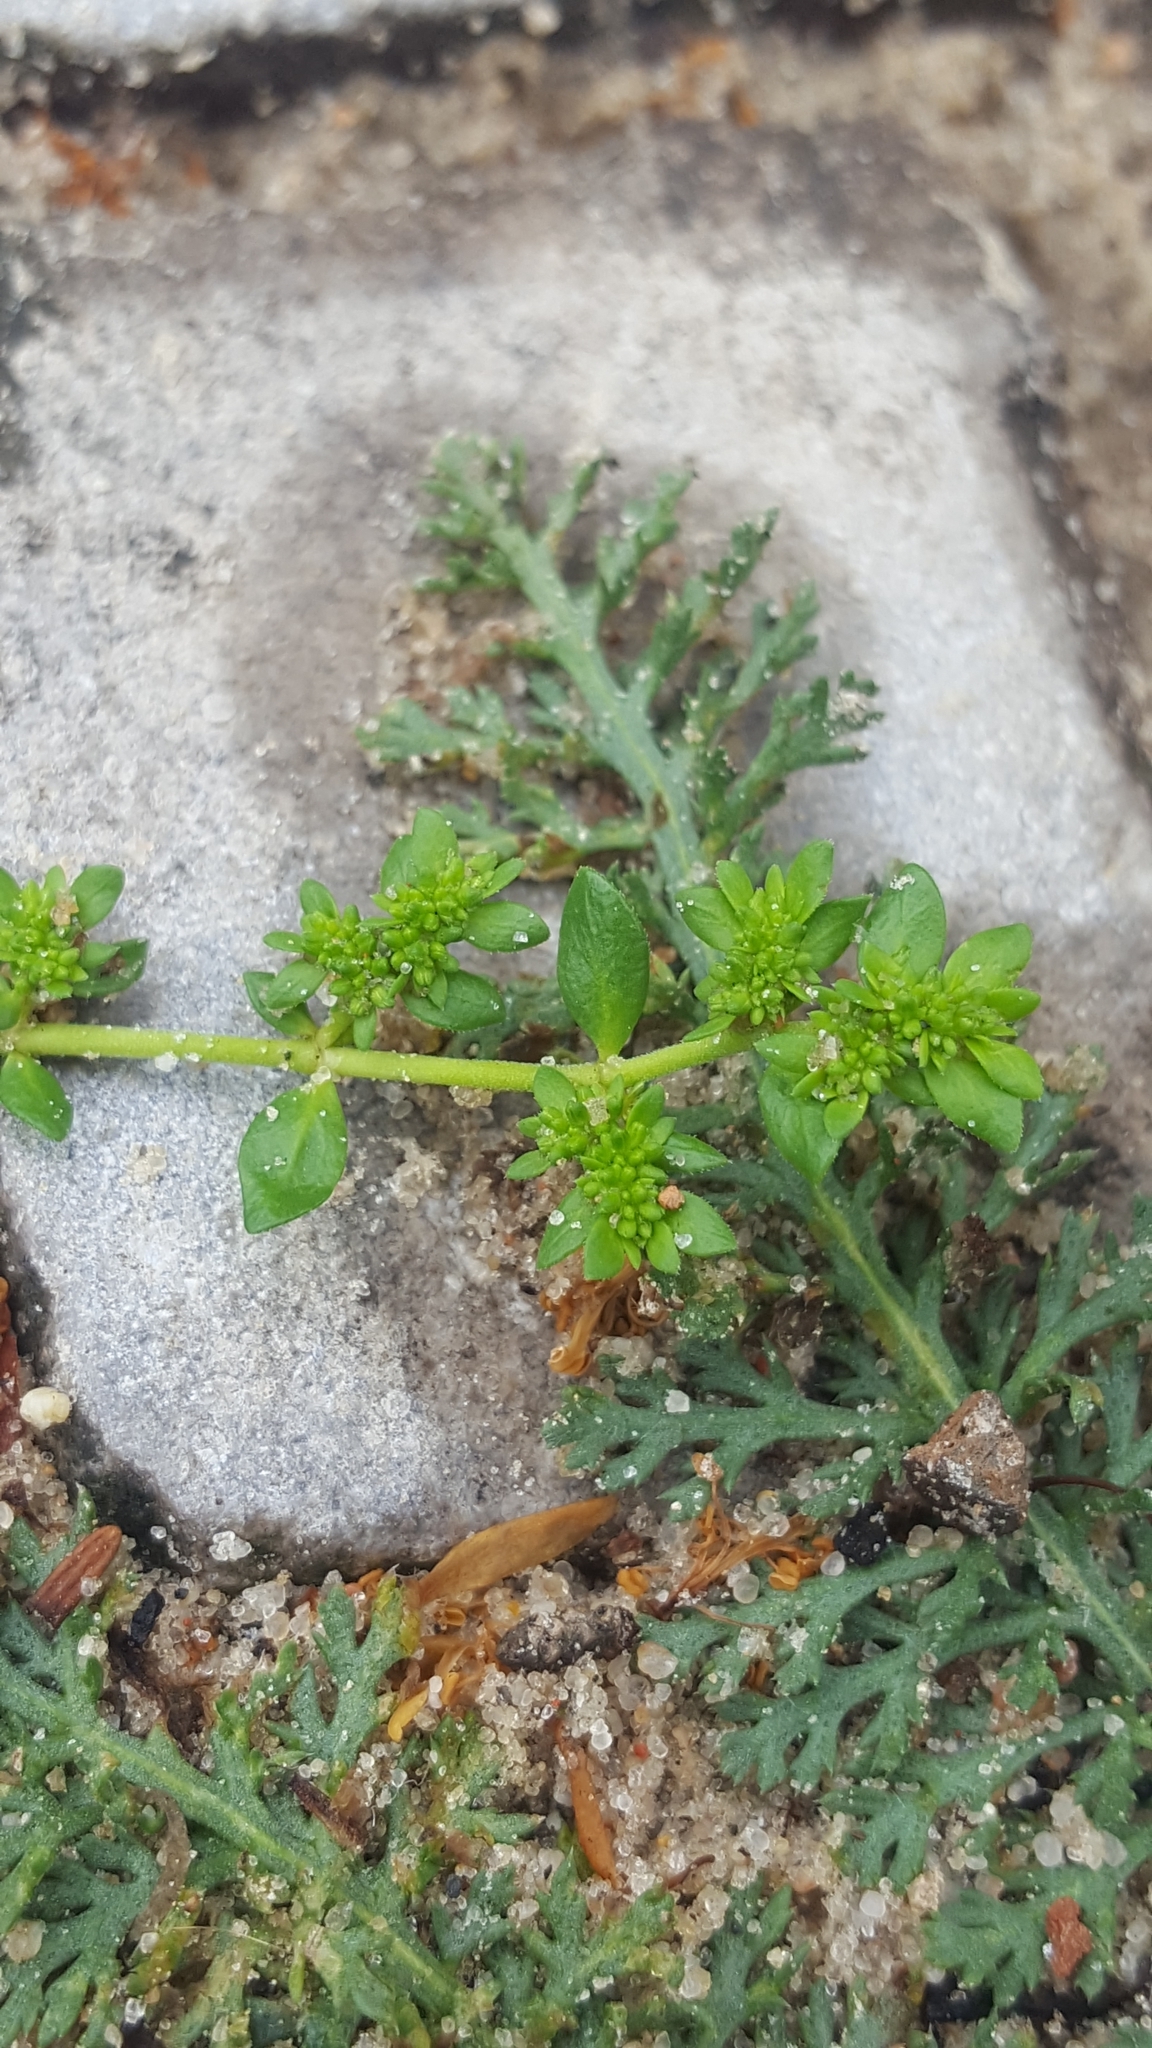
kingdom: Plantae
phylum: Tracheophyta
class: Magnoliopsida
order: Caryophyllales
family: Caryophyllaceae
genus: Herniaria
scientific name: Herniaria glabra
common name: Smooth rupturewort
